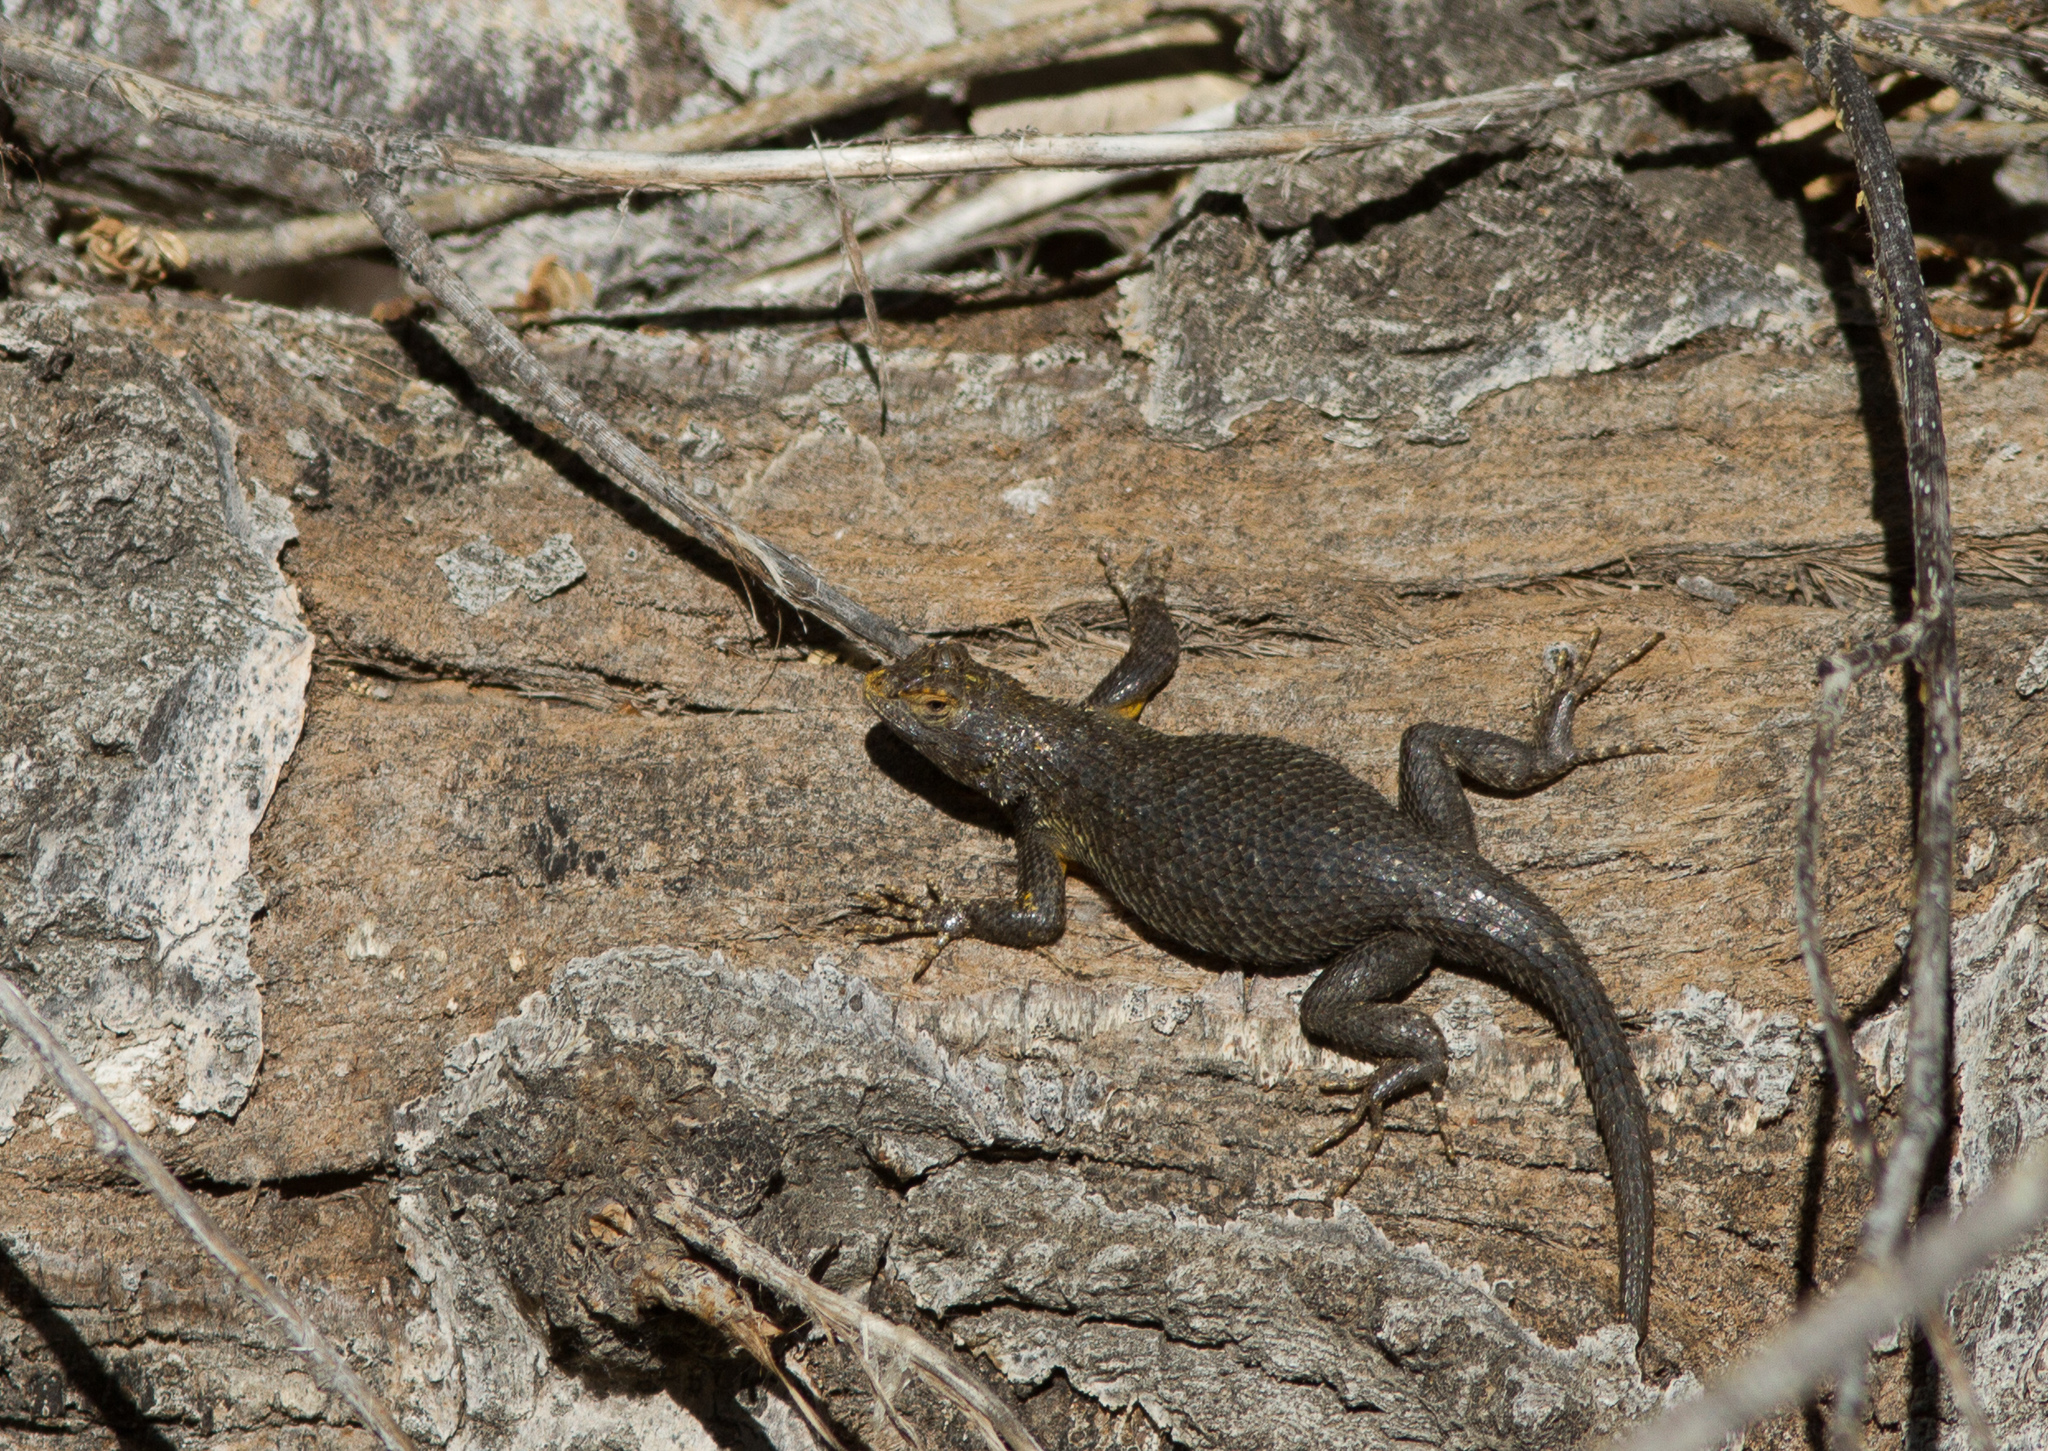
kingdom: Animalia
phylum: Chordata
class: Squamata
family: Phrynosomatidae
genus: Sceloporus
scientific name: Sceloporus occidentalis
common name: Western fence lizard
